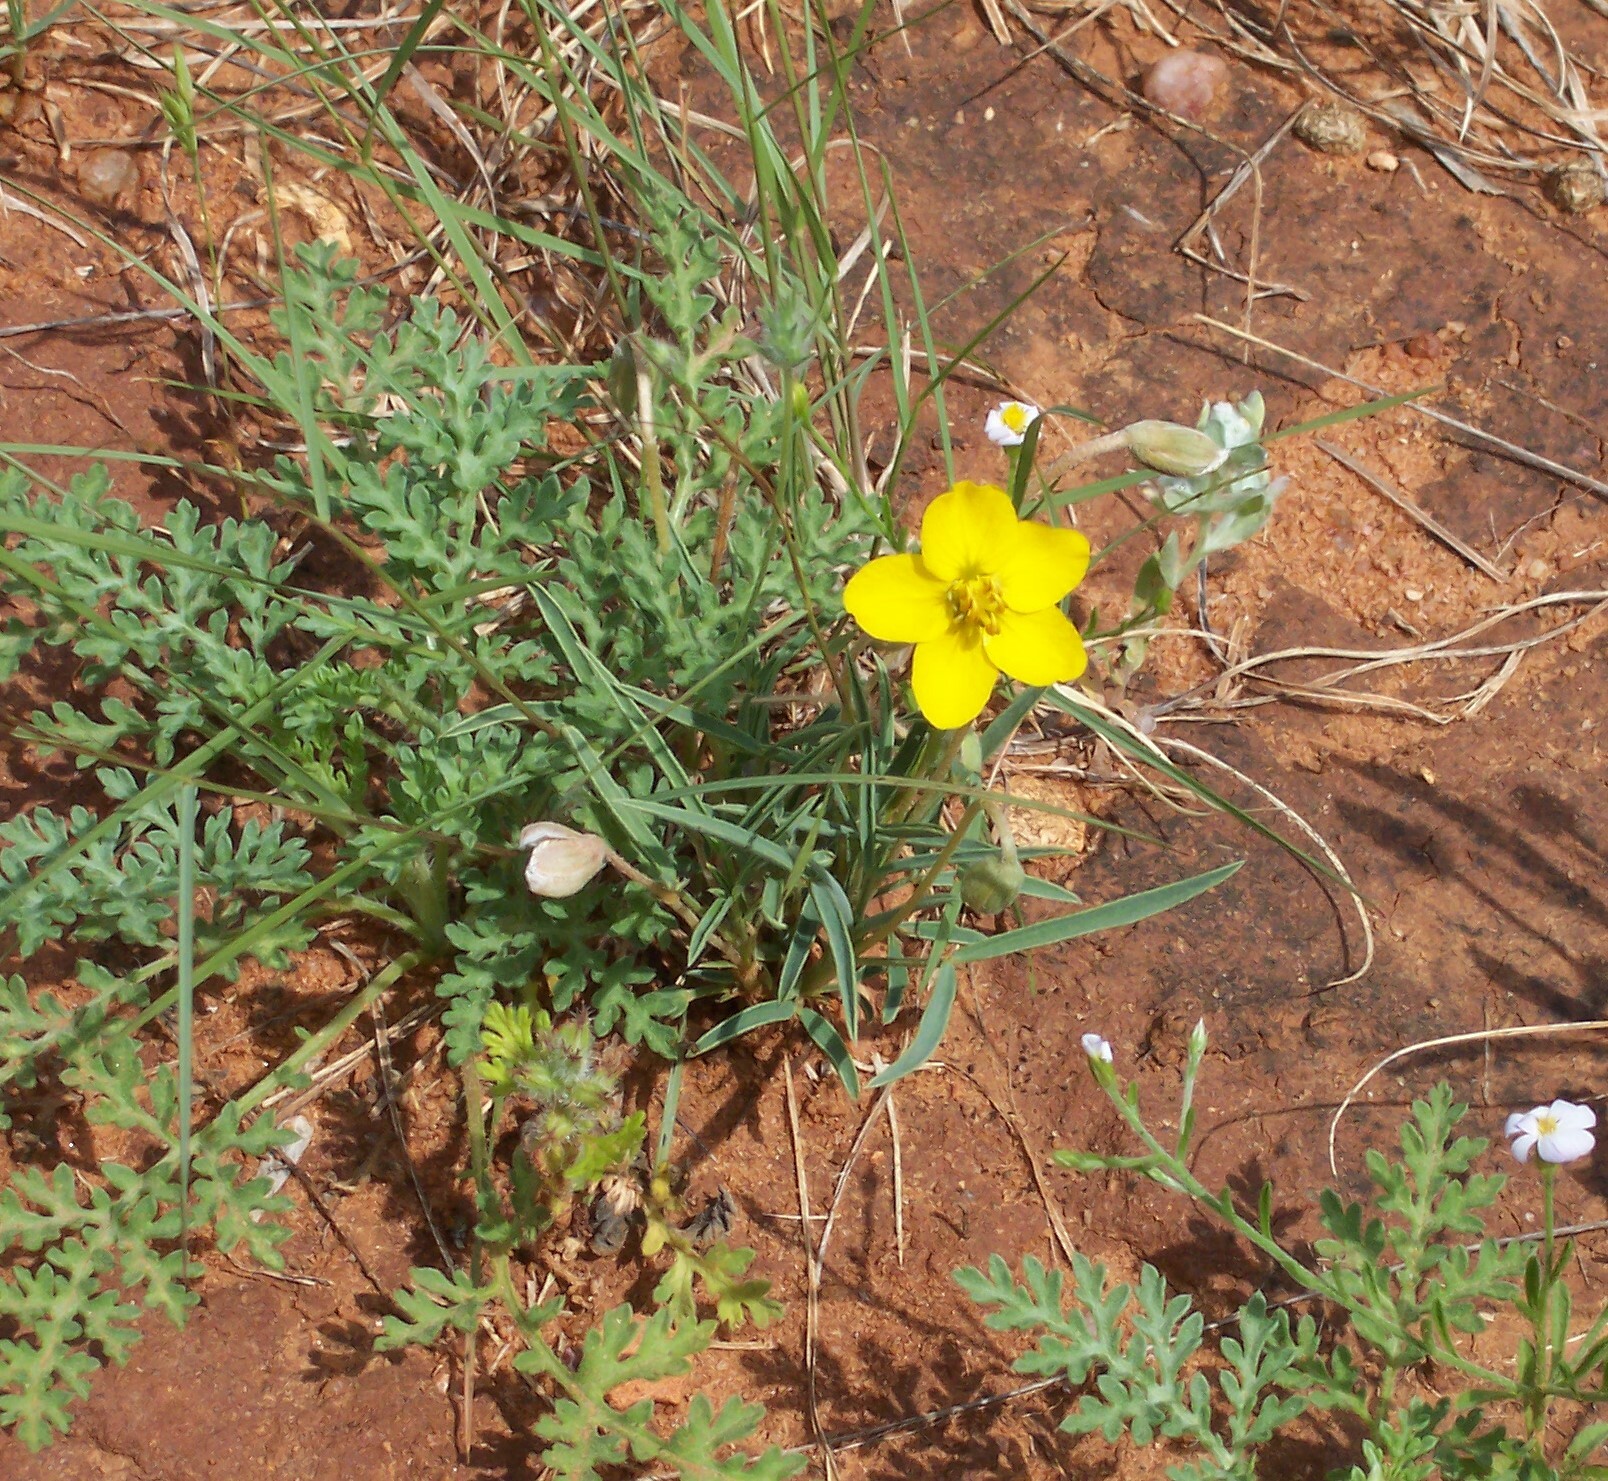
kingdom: Plantae
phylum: Tracheophyta
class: Magnoliopsida
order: Fabales
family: Fabaceae
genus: Senna
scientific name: Senna pumilio
